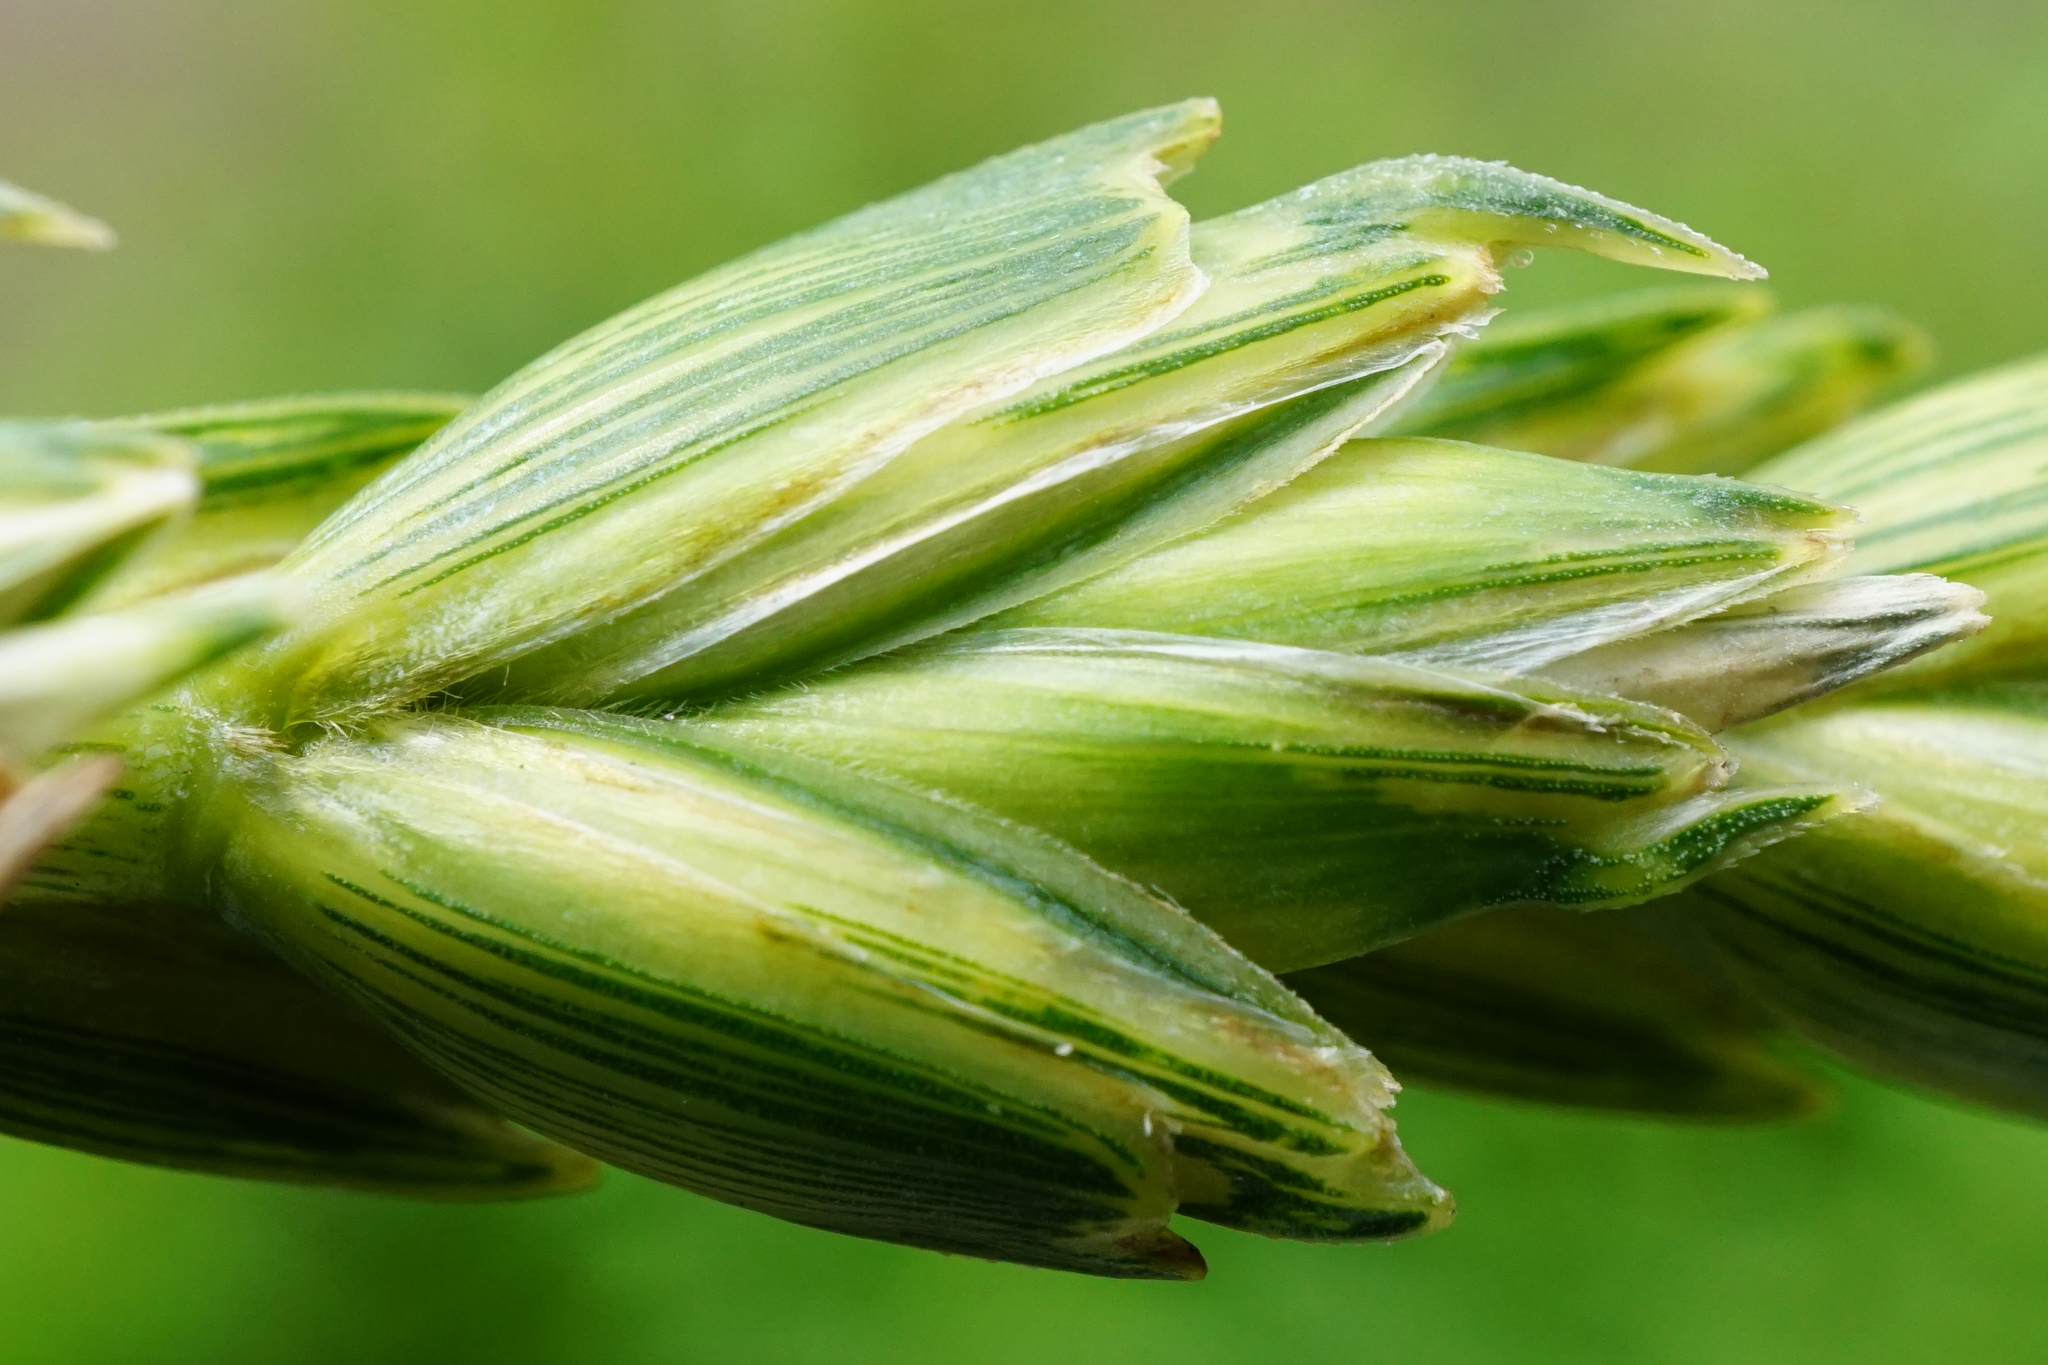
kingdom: Plantae
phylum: Tracheophyta
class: Liliopsida
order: Poales
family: Poaceae
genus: Triticum
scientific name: Triticum aestivum
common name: Common wheat
